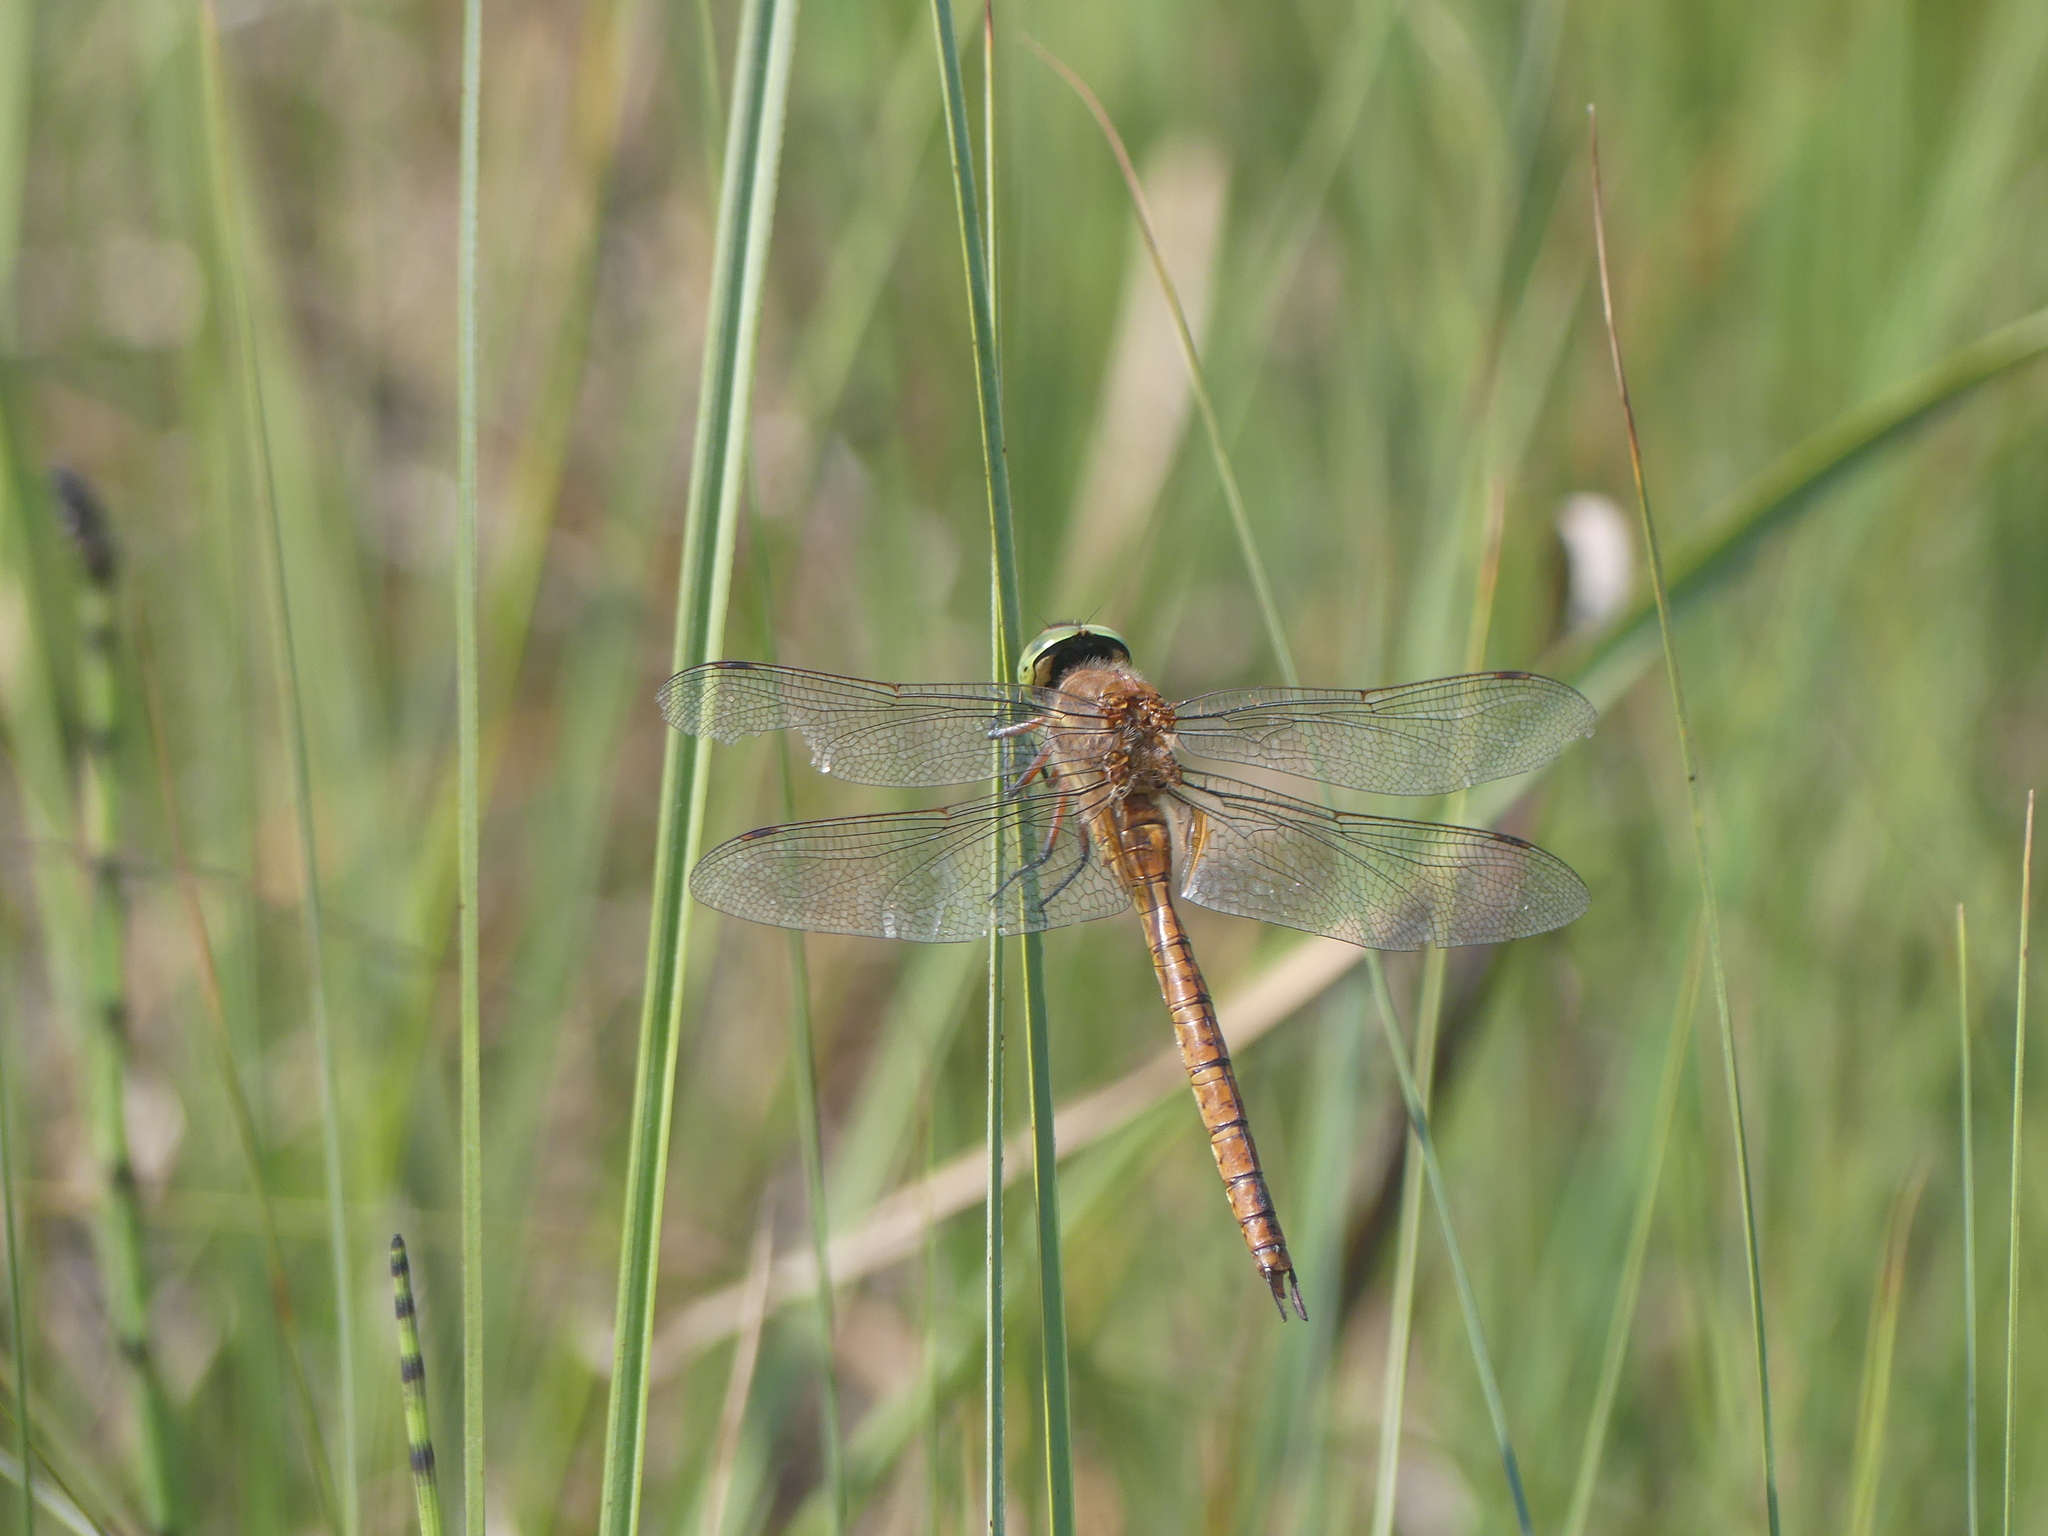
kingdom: Animalia
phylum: Arthropoda
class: Insecta
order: Odonata
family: Aeshnidae
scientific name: Aeshnidae
